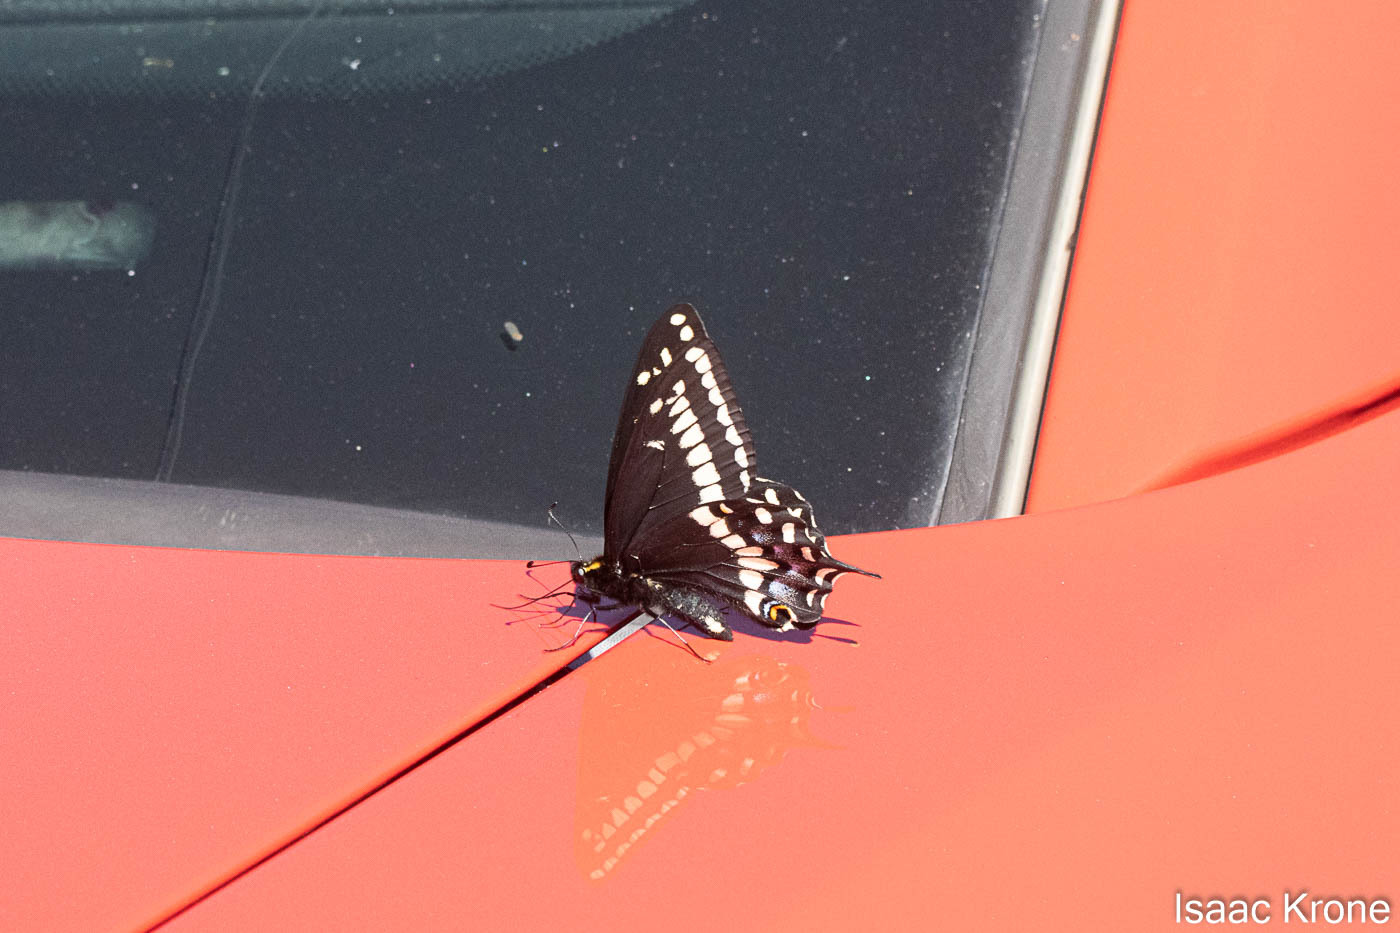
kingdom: Animalia
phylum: Arthropoda
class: Insecta
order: Lepidoptera
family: Papilionidae
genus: Papilio
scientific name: Papilio indra
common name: Cliff swallowtail
